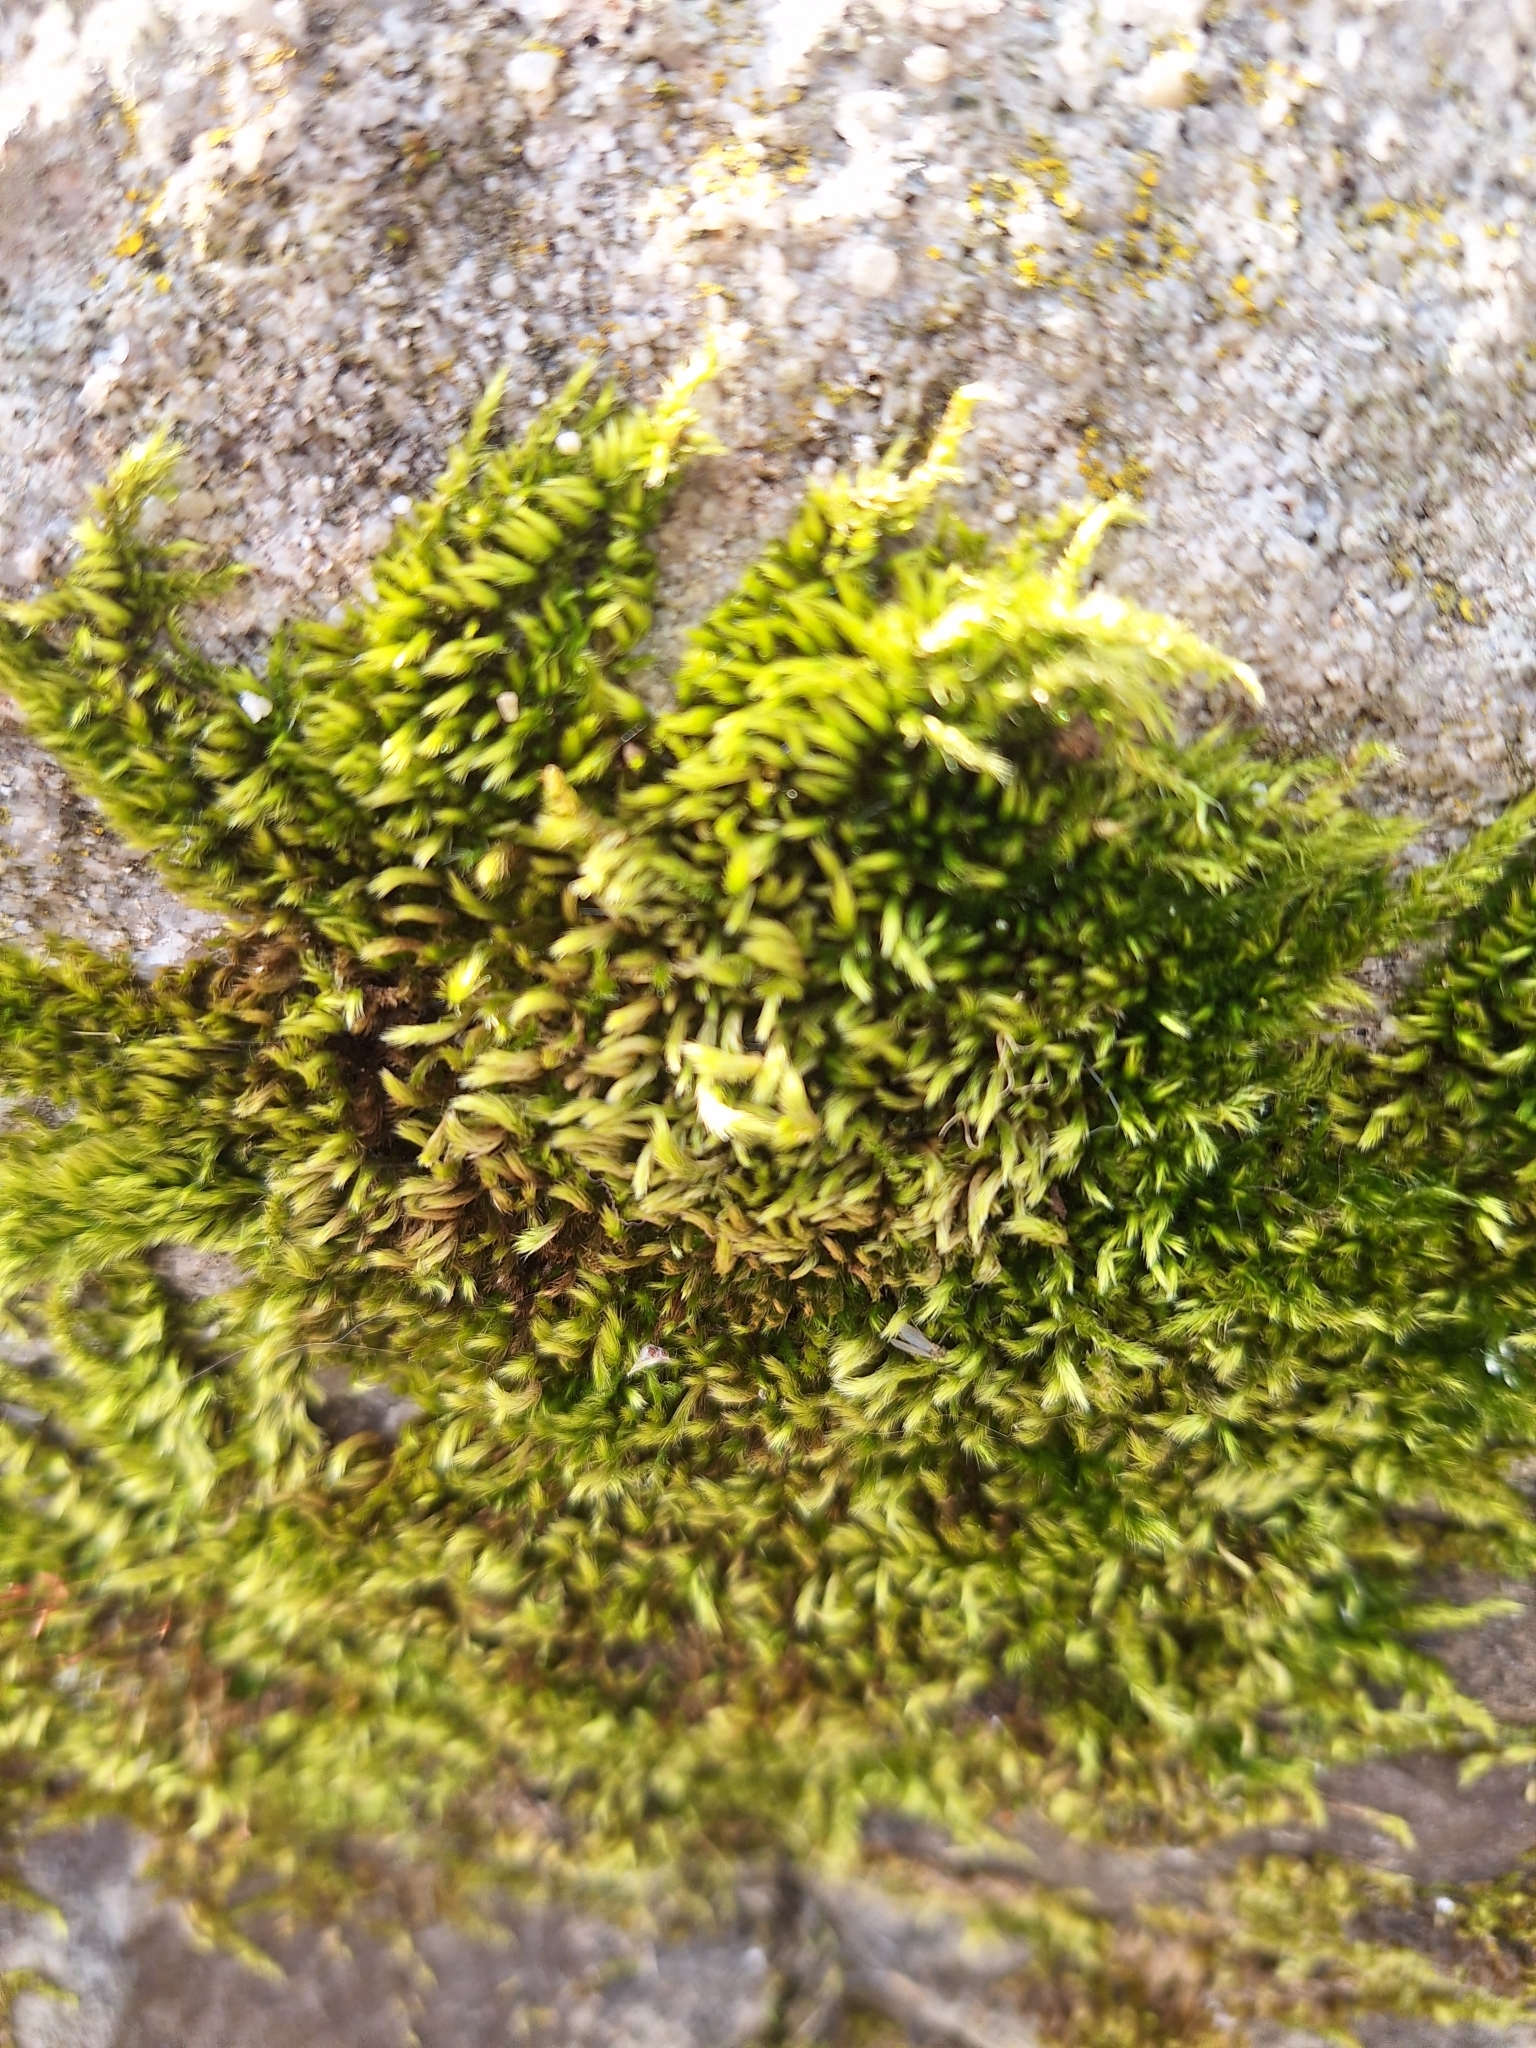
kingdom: Plantae
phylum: Bryophyta
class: Bryopsida
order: Hypnales
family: Brachytheciaceae
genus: Homalothecium
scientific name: Homalothecium sericeum
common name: Silky wall feather-moss
